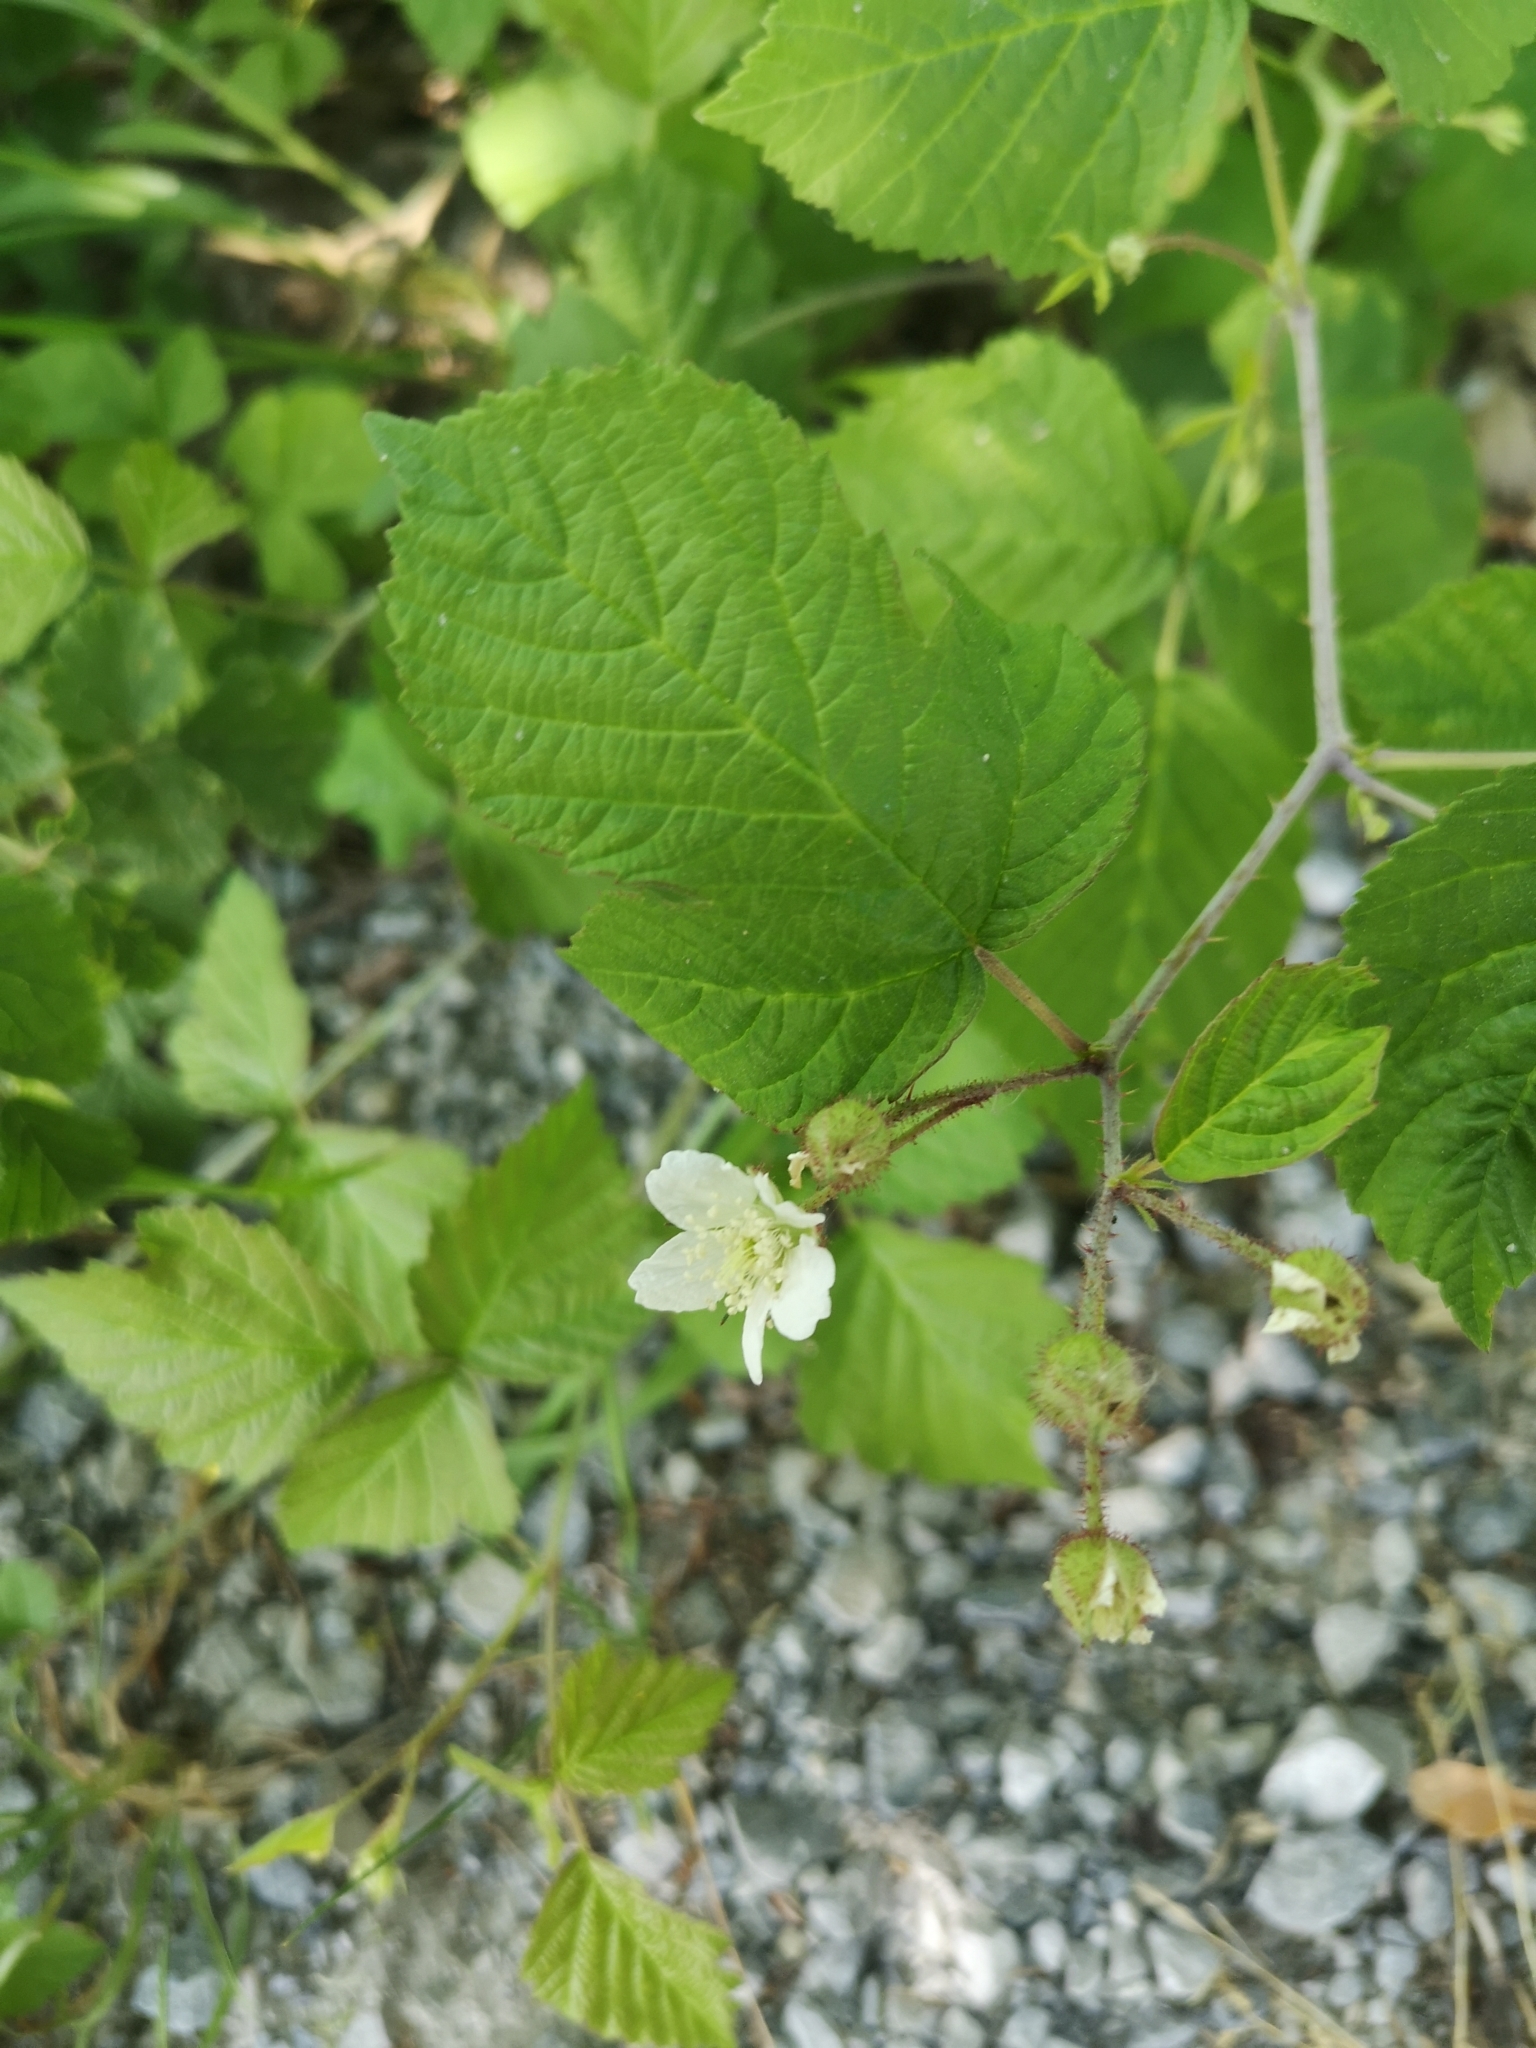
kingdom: Plantae
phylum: Tracheophyta
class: Magnoliopsida
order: Rosales
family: Rosaceae
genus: Rubus
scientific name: Rubus caesius
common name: Dewberry
